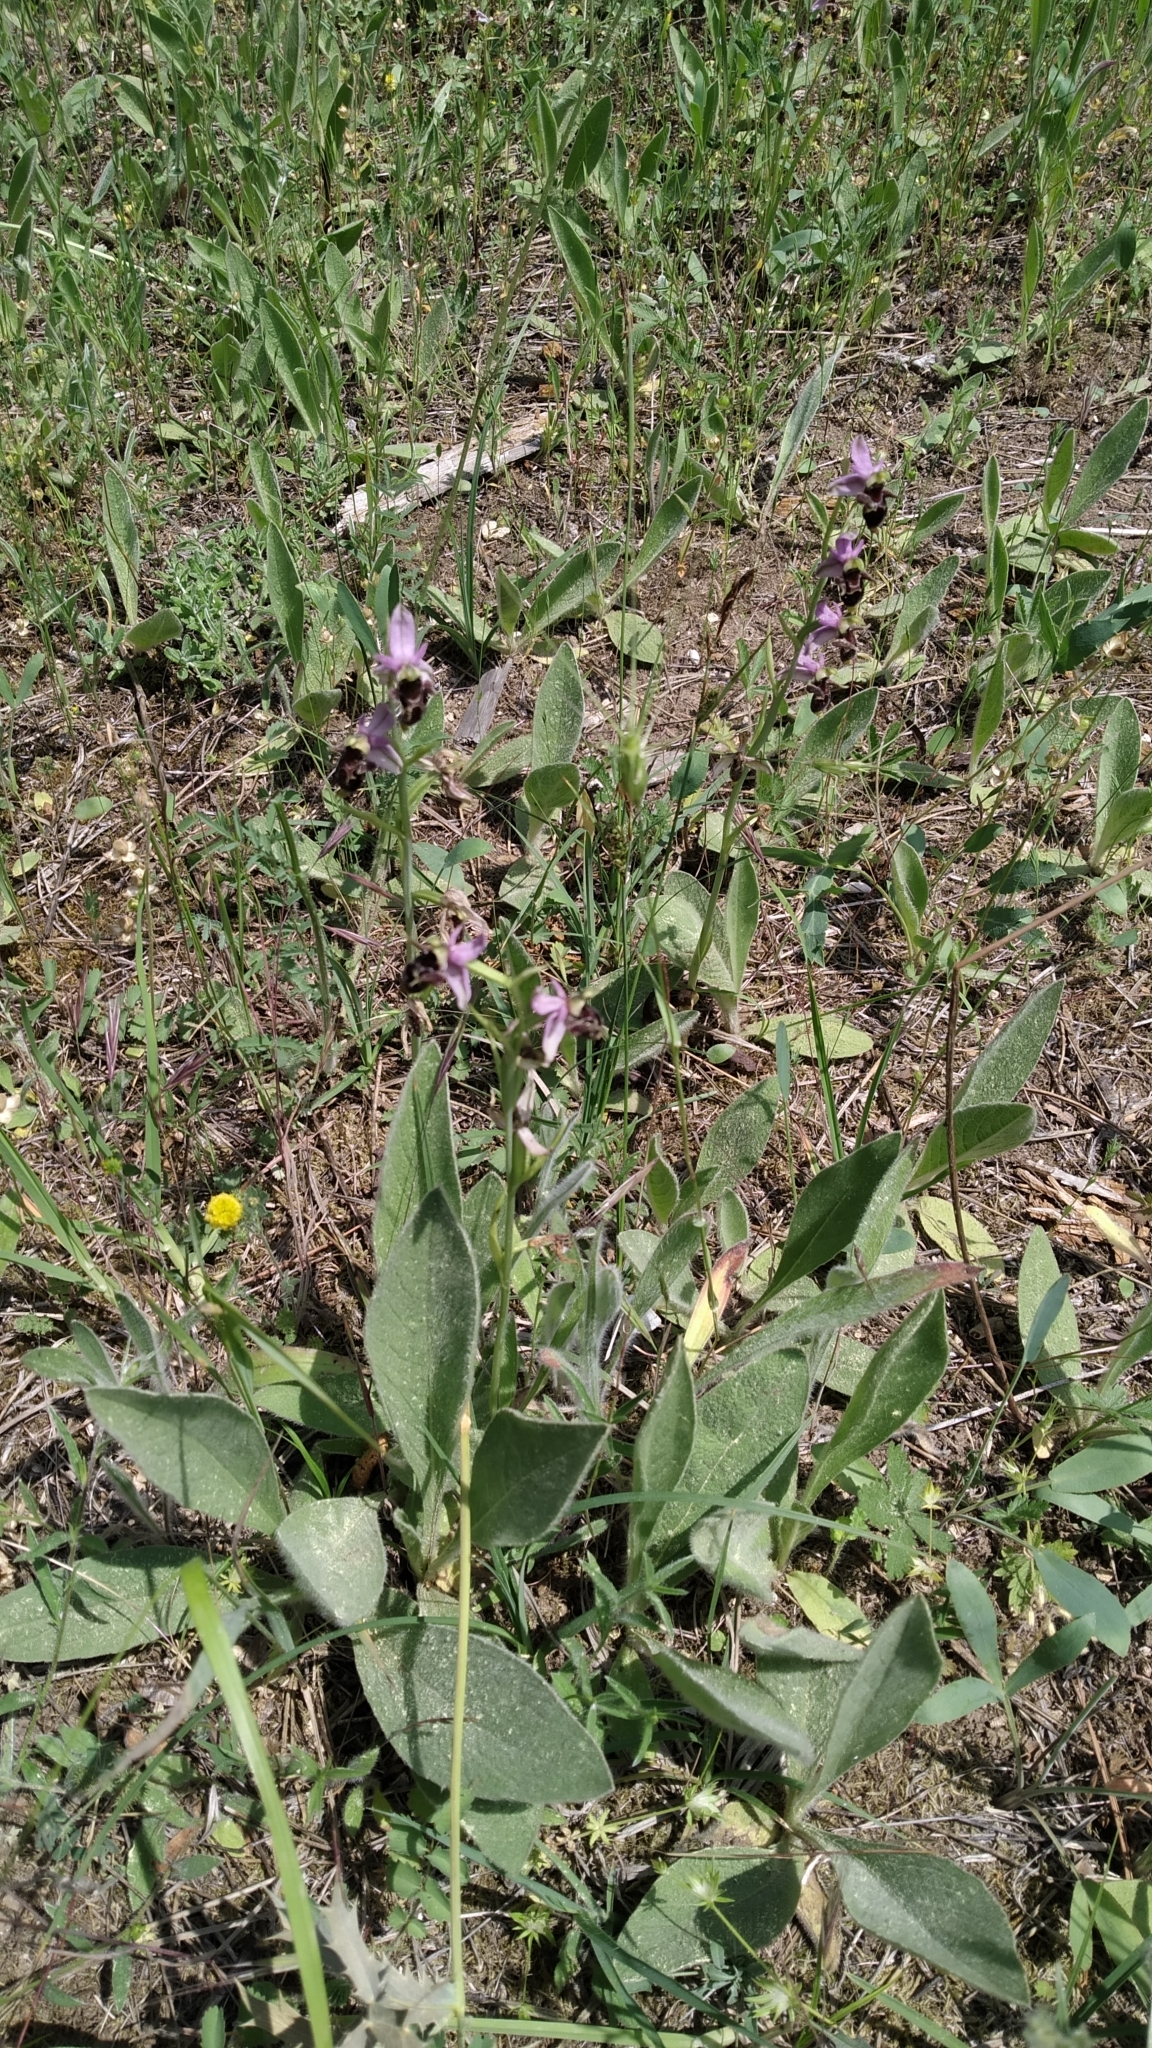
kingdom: Plantae
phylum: Tracheophyta
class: Liliopsida
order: Asparagales
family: Orchidaceae
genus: Ophrys
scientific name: Ophrys
